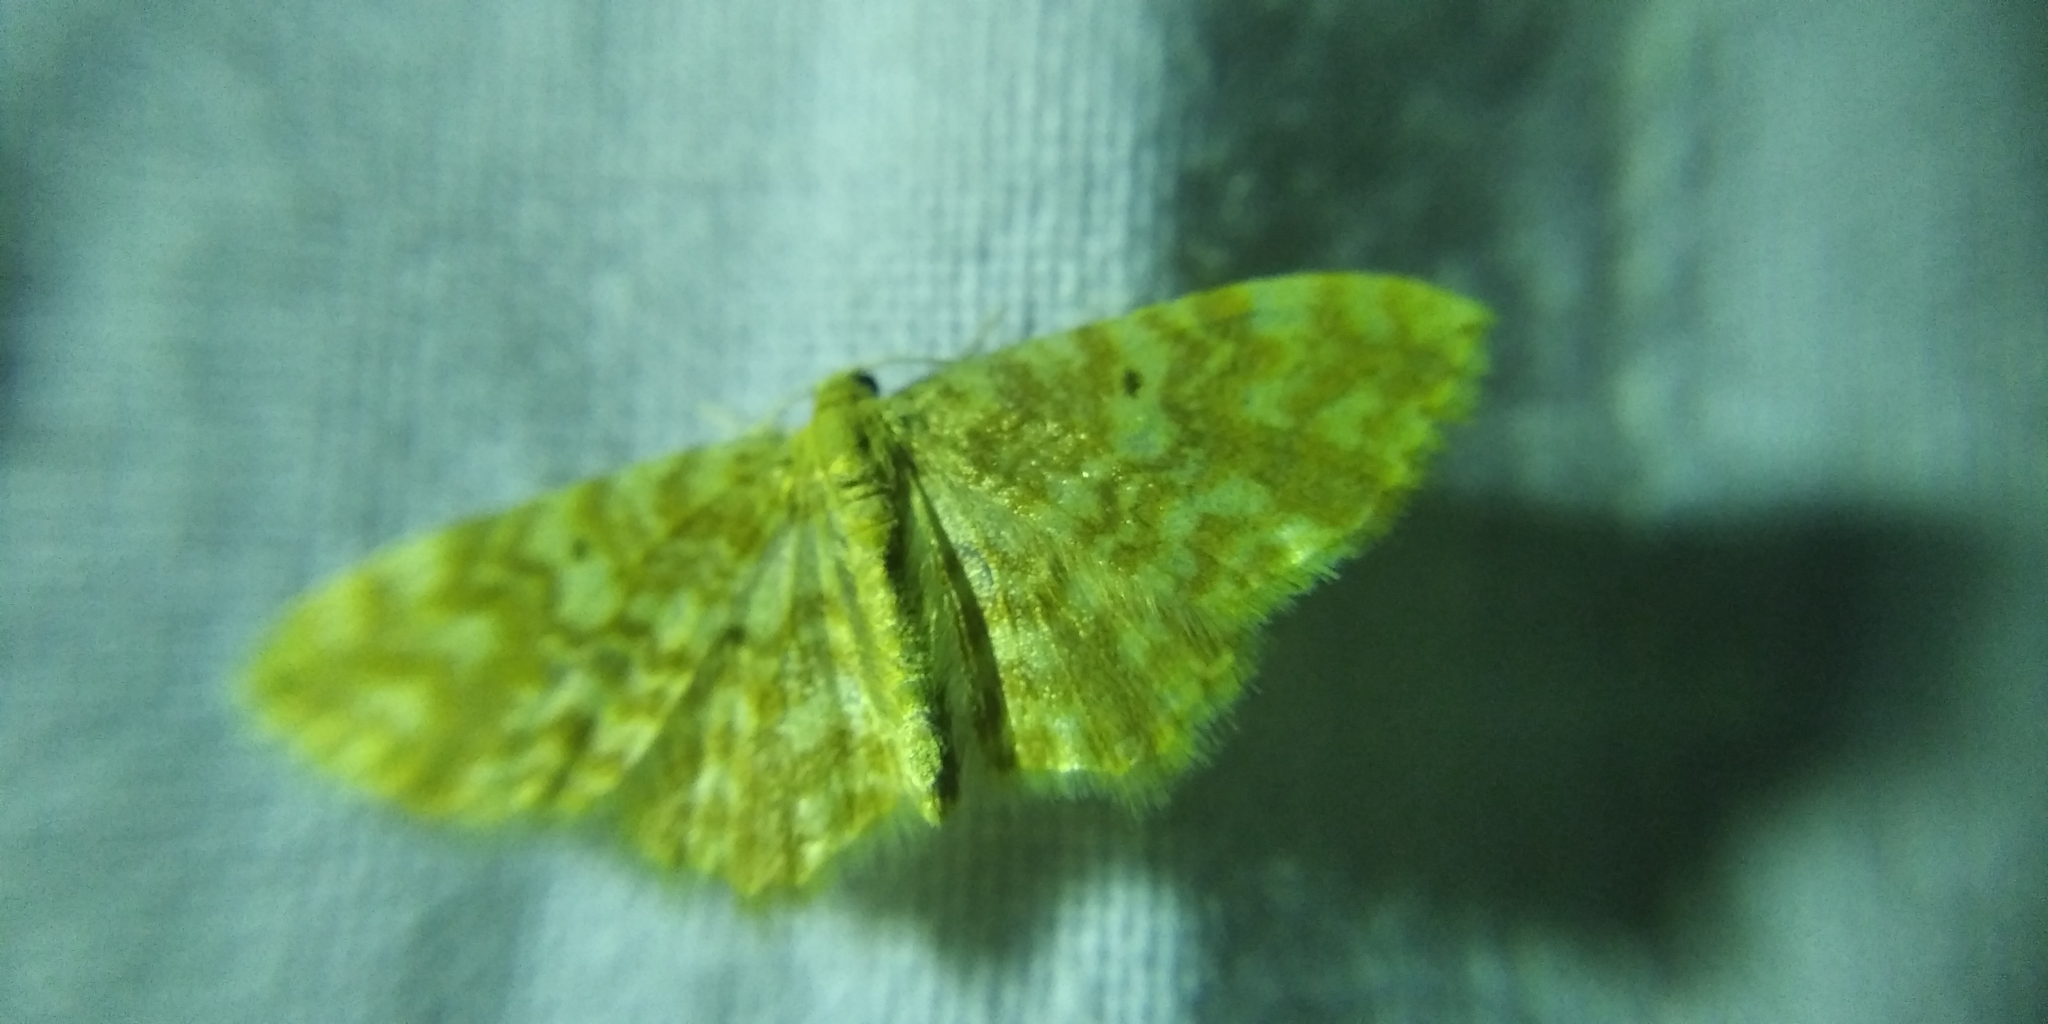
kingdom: Animalia
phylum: Arthropoda
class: Insecta
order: Lepidoptera
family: Geometridae
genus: Hydrelia
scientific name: Hydrelia flammeolaria
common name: Small yellow wave
